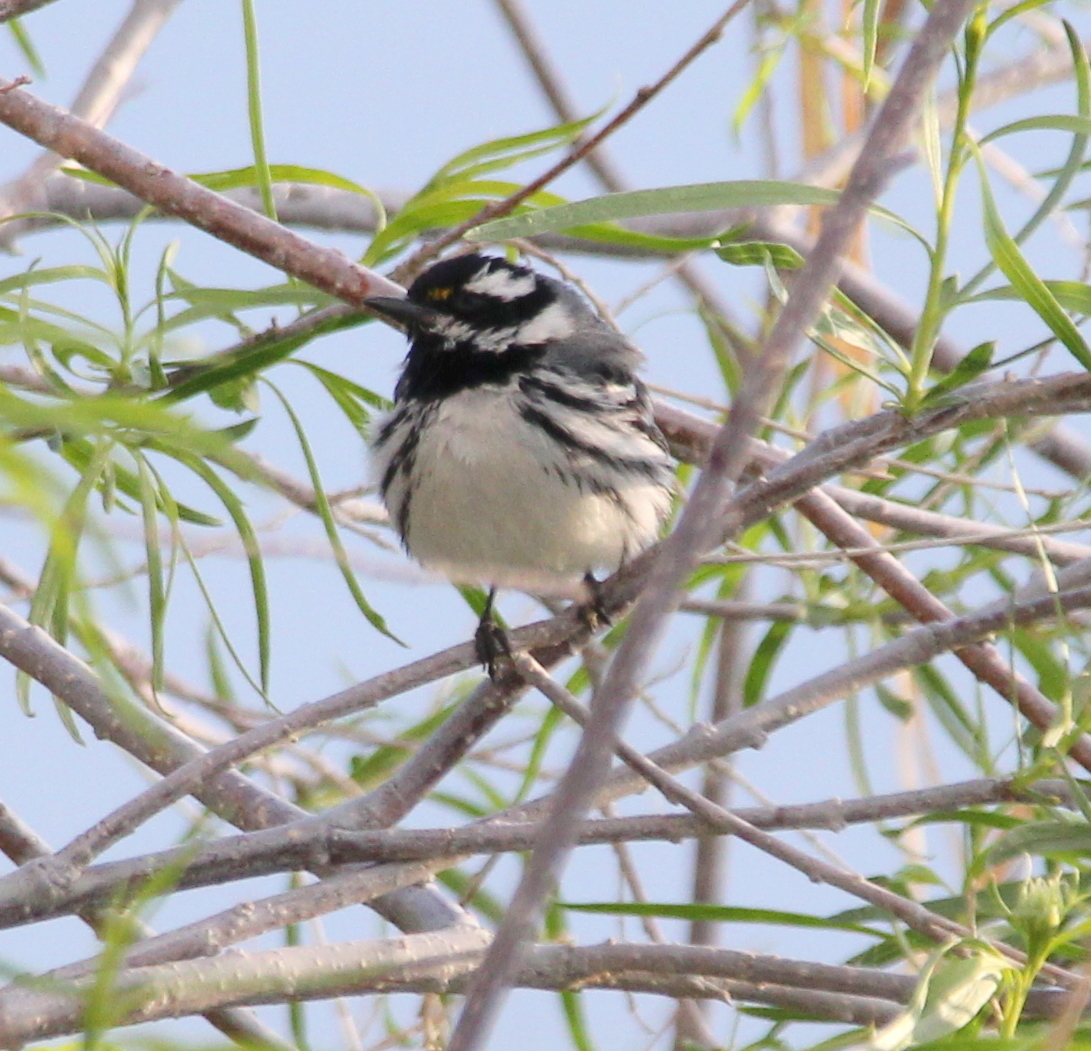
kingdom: Animalia
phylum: Chordata
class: Aves
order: Passeriformes
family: Parulidae
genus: Setophaga
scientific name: Setophaga nigrescens
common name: Black-throated gray warbler
